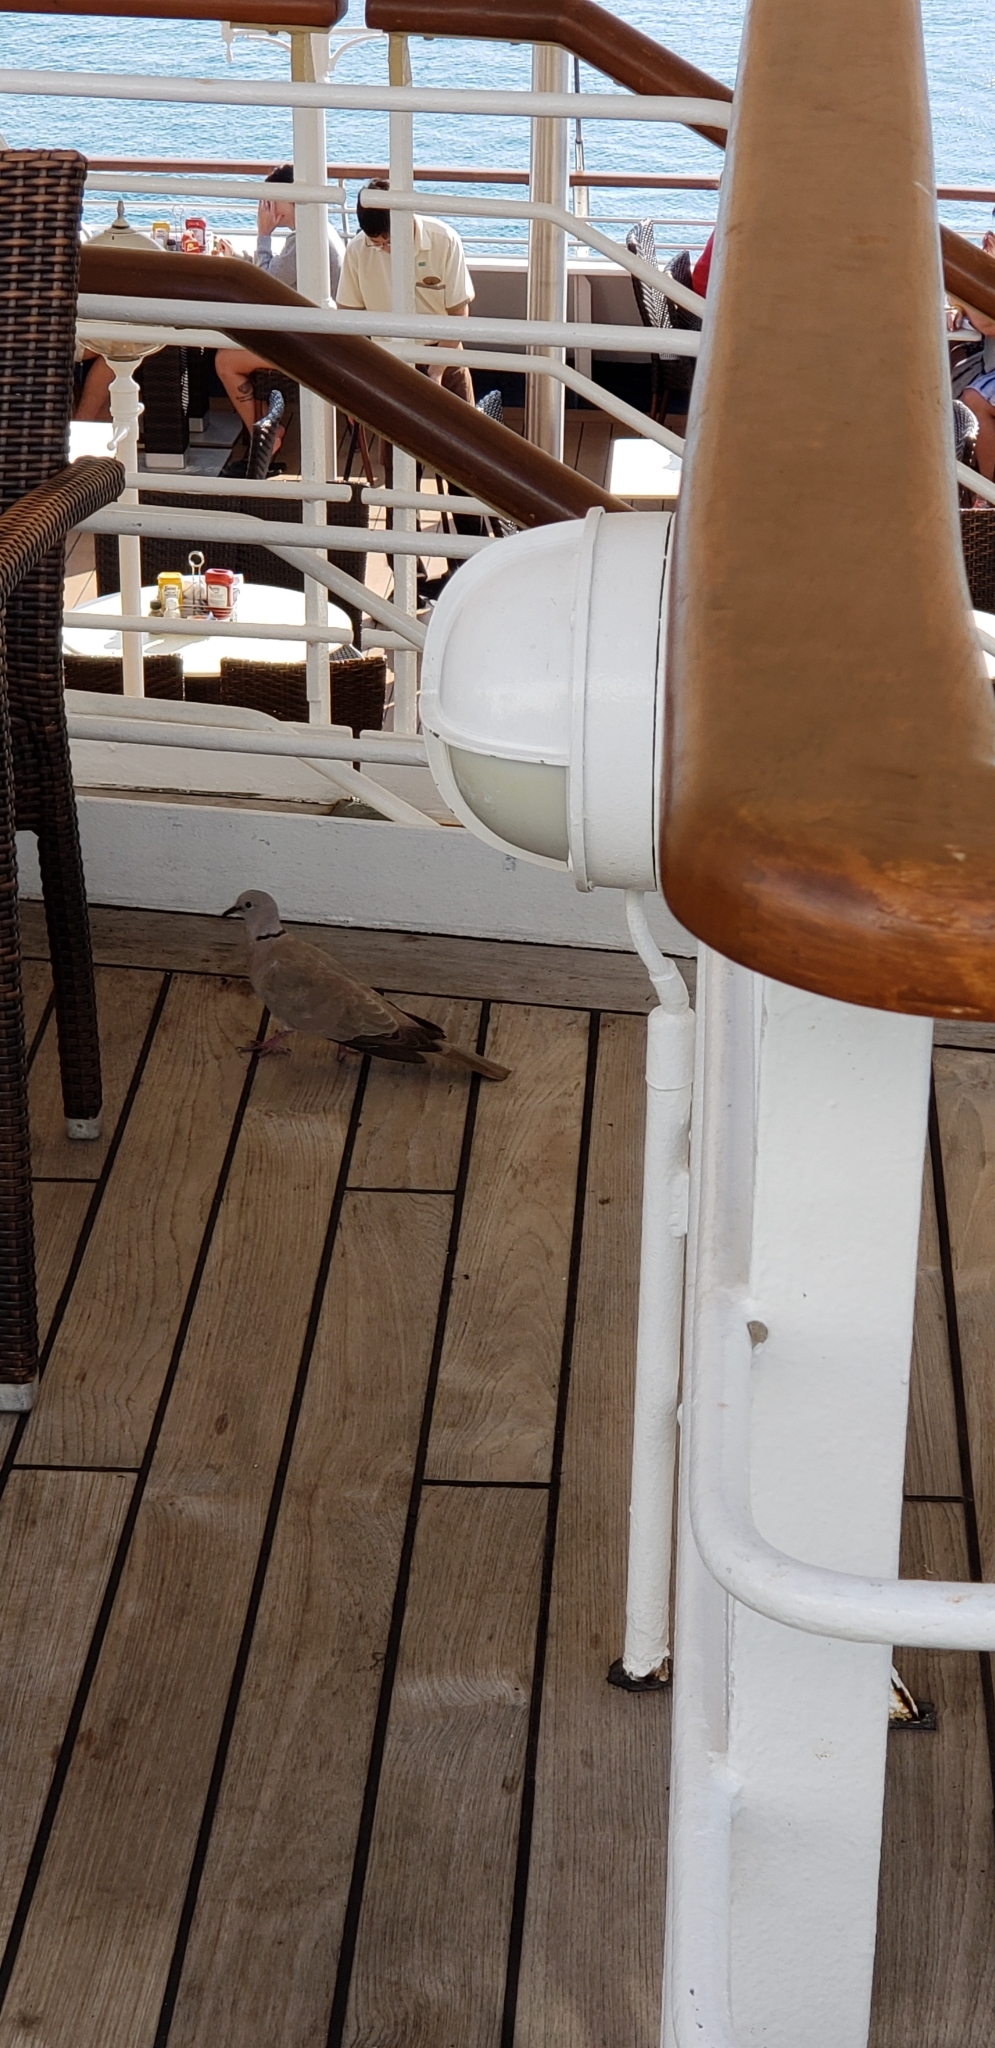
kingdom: Animalia
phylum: Chordata
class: Aves
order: Columbiformes
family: Columbidae
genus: Streptopelia
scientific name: Streptopelia decaocto
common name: Eurasian collared dove
